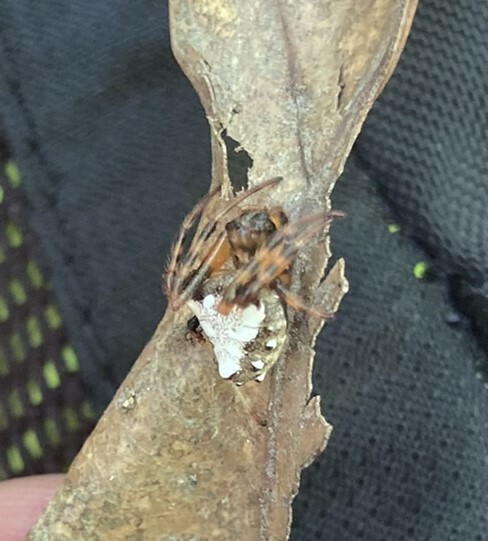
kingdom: Animalia
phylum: Arthropoda
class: Arachnida
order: Araneae
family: Araneidae
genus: Verrucosa
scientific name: Verrucosa arenata
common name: Orb weavers
